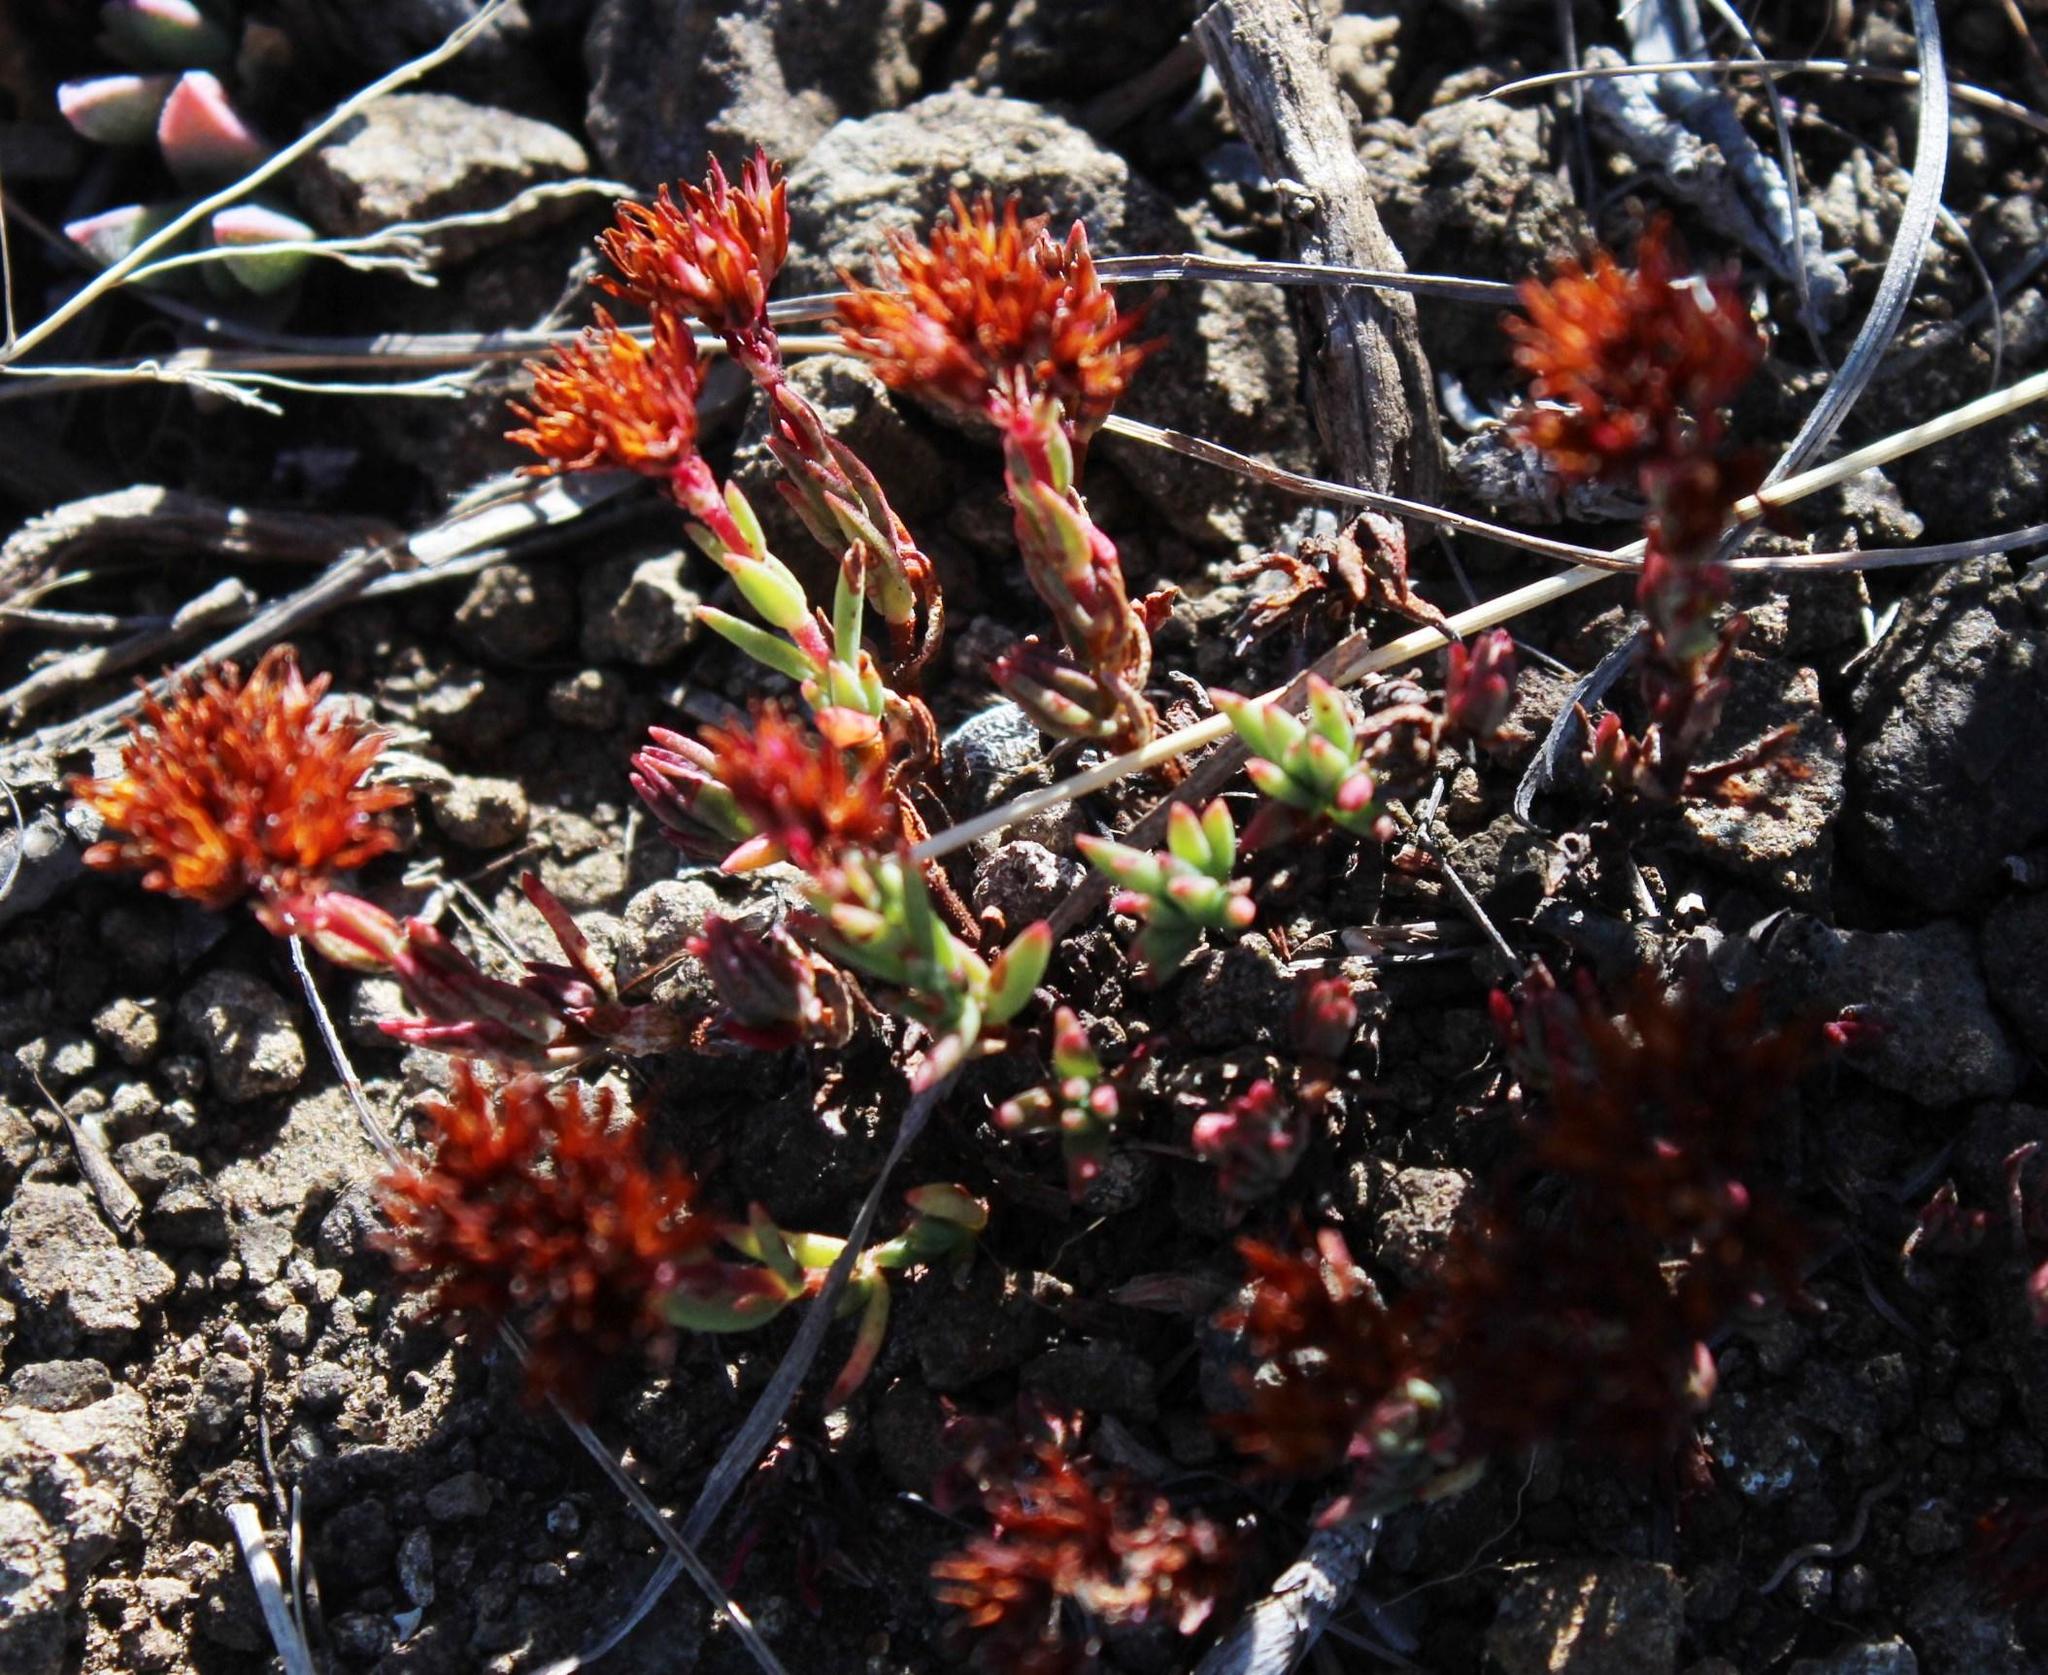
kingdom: Plantae
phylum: Tracheophyta
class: Magnoliopsida
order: Saxifragales
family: Crassulaceae
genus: Crassula
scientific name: Crassula setulosa
